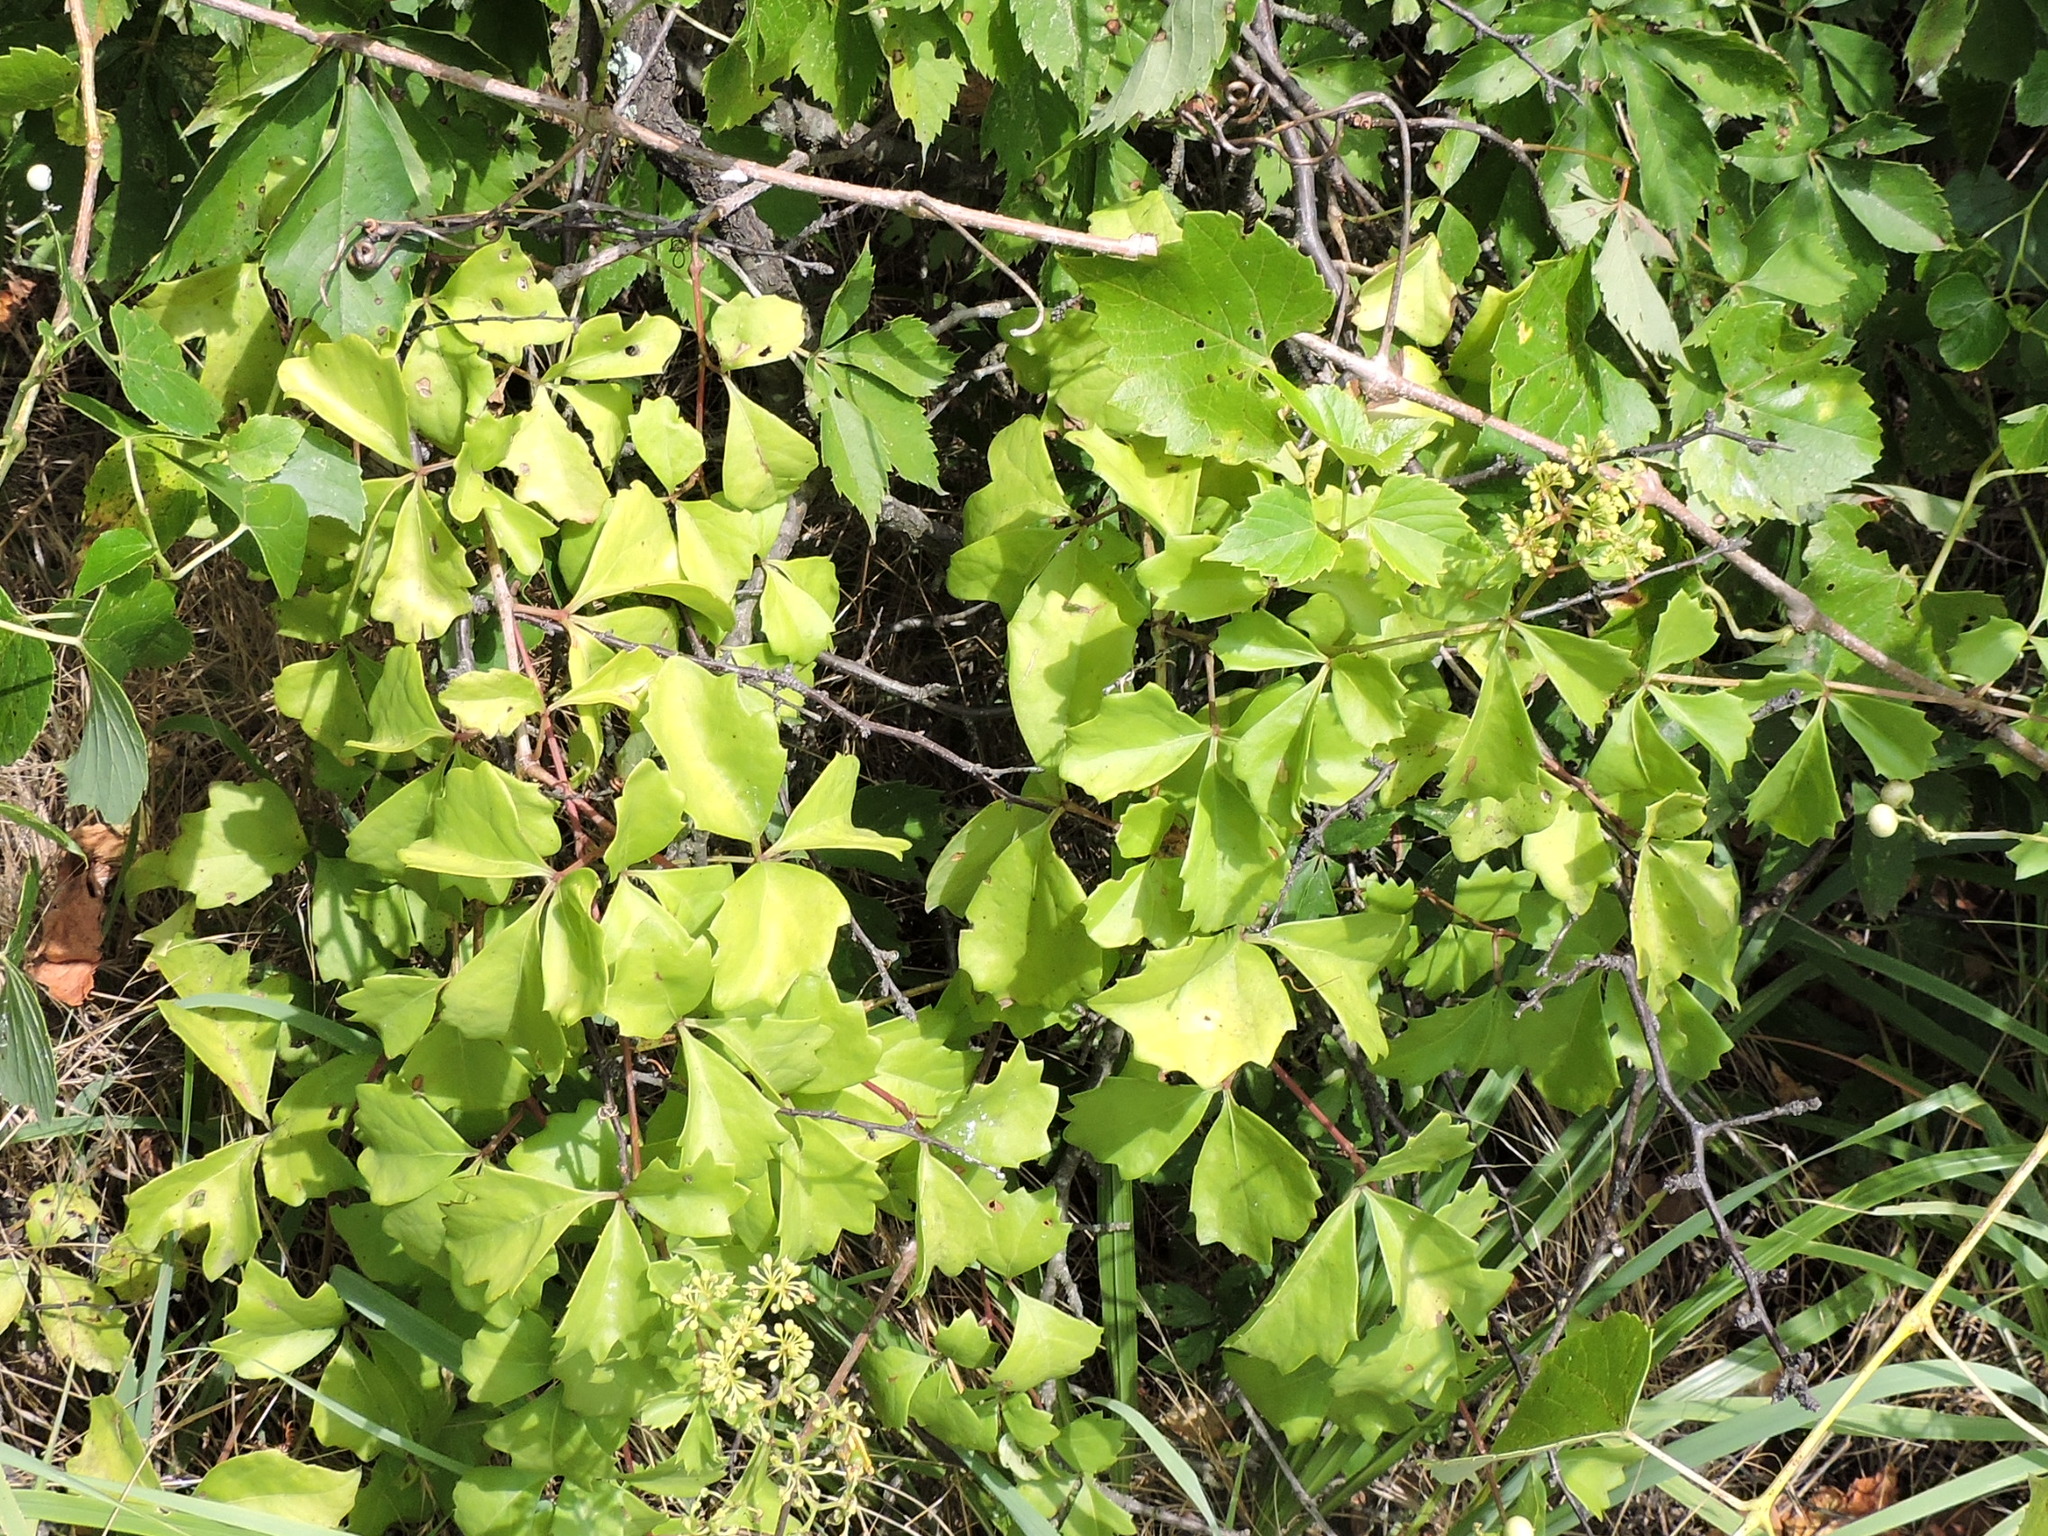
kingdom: Plantae
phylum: Tracheophyta
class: Magnoliopsida
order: Vitales
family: Vitaceae
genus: Cissus
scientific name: Cissus trifoliata
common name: Vine-sorrel
